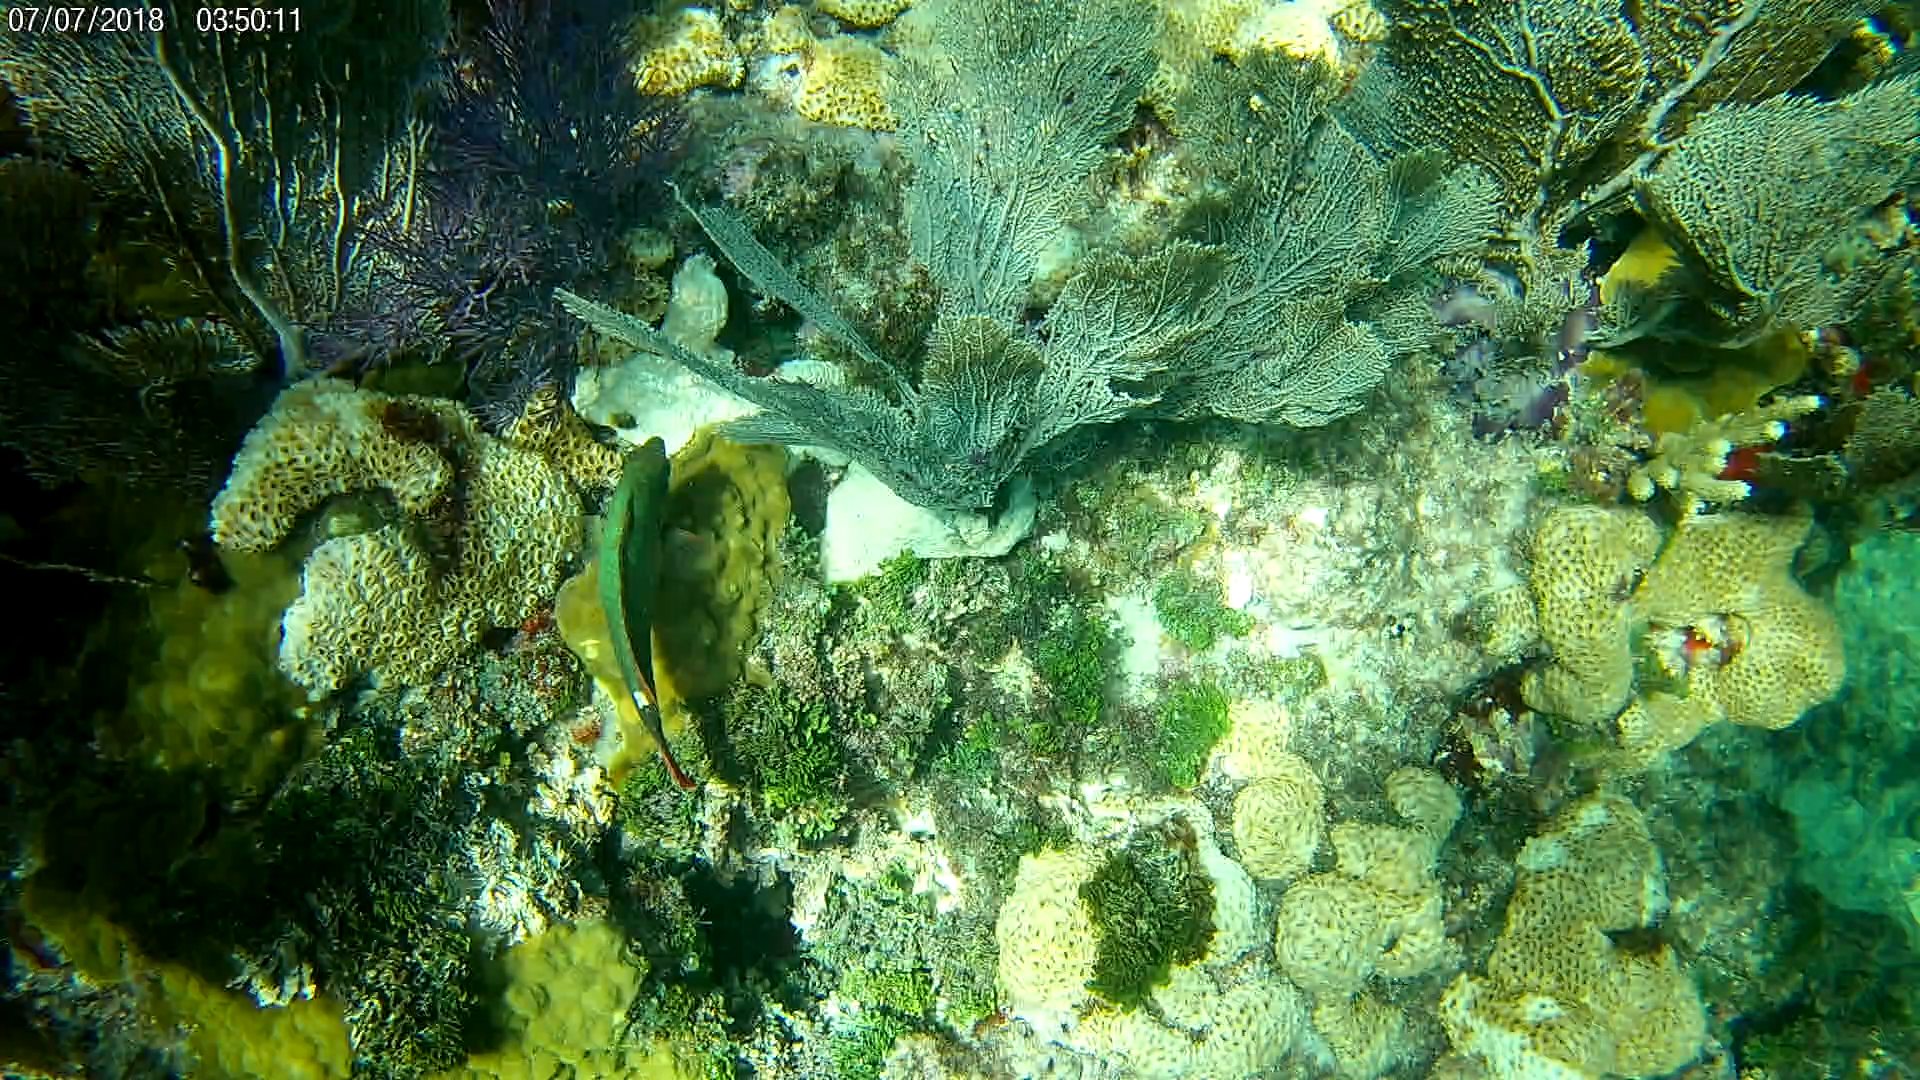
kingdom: Animalia
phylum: Chordata
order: Perciformes
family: Scaridae
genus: Sparisoma
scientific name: Sparisoma aurofrenatum
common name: Redband parrotfish
